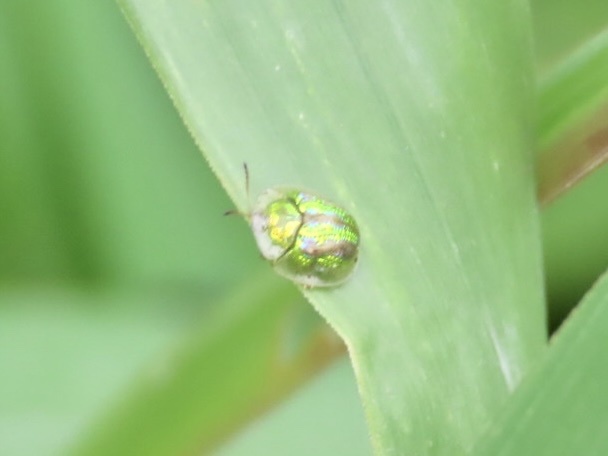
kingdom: Animalia
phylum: Arthropoda
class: Insecta
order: Coleoptera
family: Chrysomelidae
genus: Cassida
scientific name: Cassida circumdata
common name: Tortoise beetle
